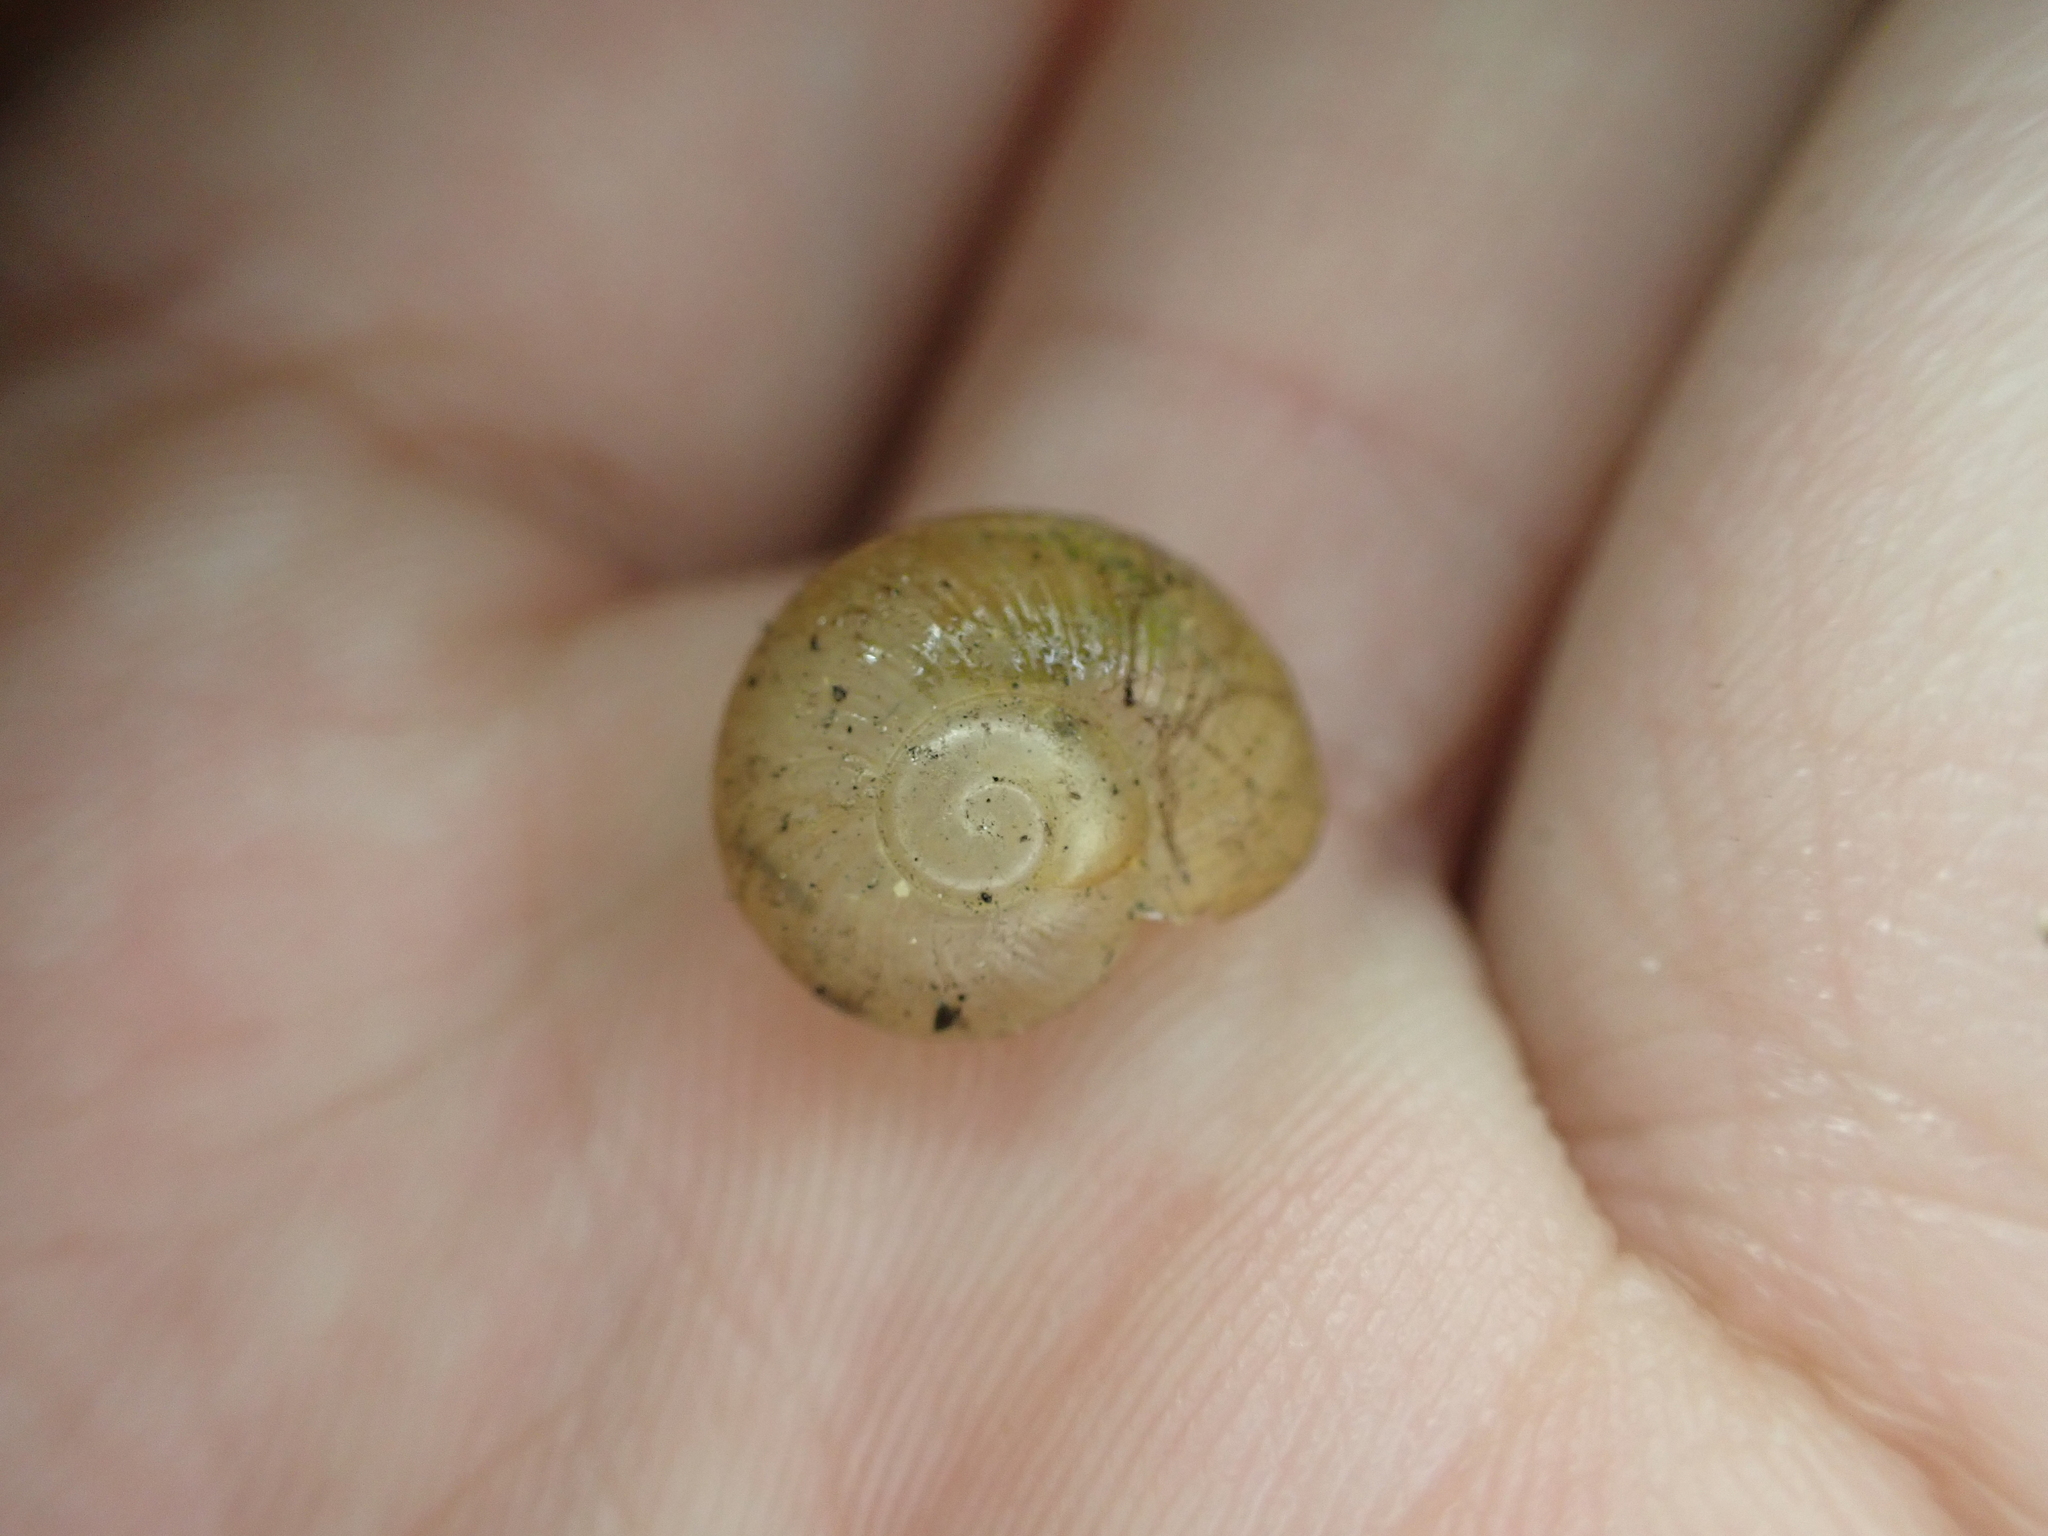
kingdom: Animalia
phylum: Mollusca
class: Gastropoda
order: Stylommatophora
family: Zachrysiidae
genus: Zachrysia
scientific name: Zachrysia provisoria
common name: Garden zachrysia
